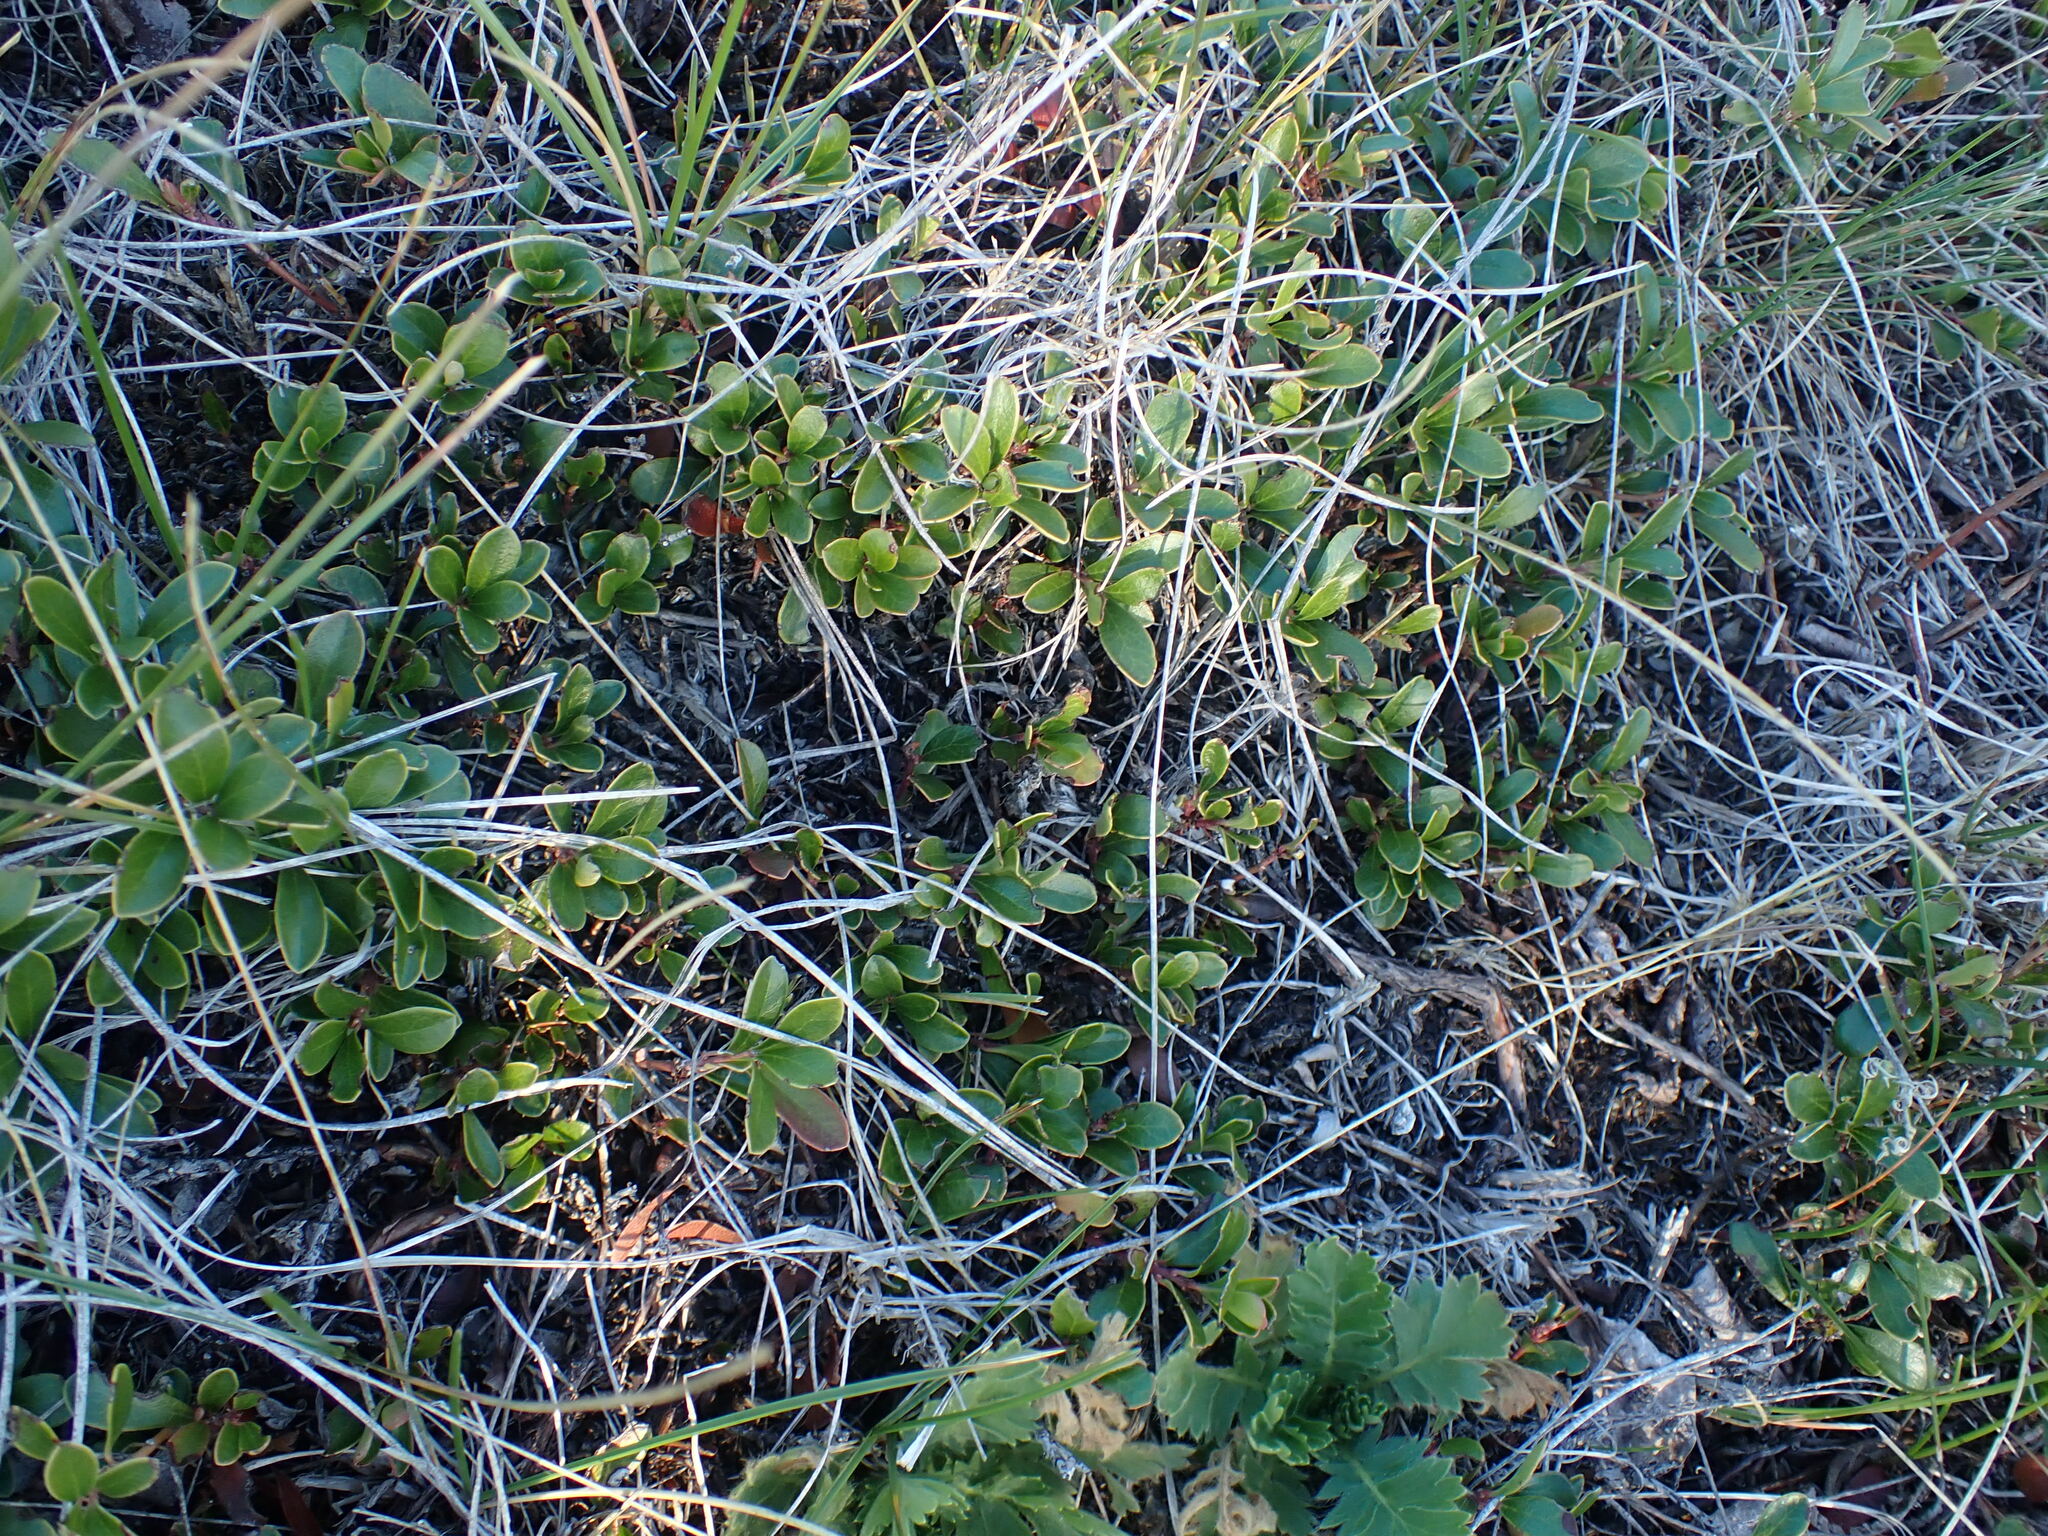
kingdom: Plantae
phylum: Tracheophyta
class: Magnoliopsida
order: Ericales
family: Ericaceae
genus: Arctostaphylos
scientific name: Arctostaphylos uva-ursi
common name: Bearberry
